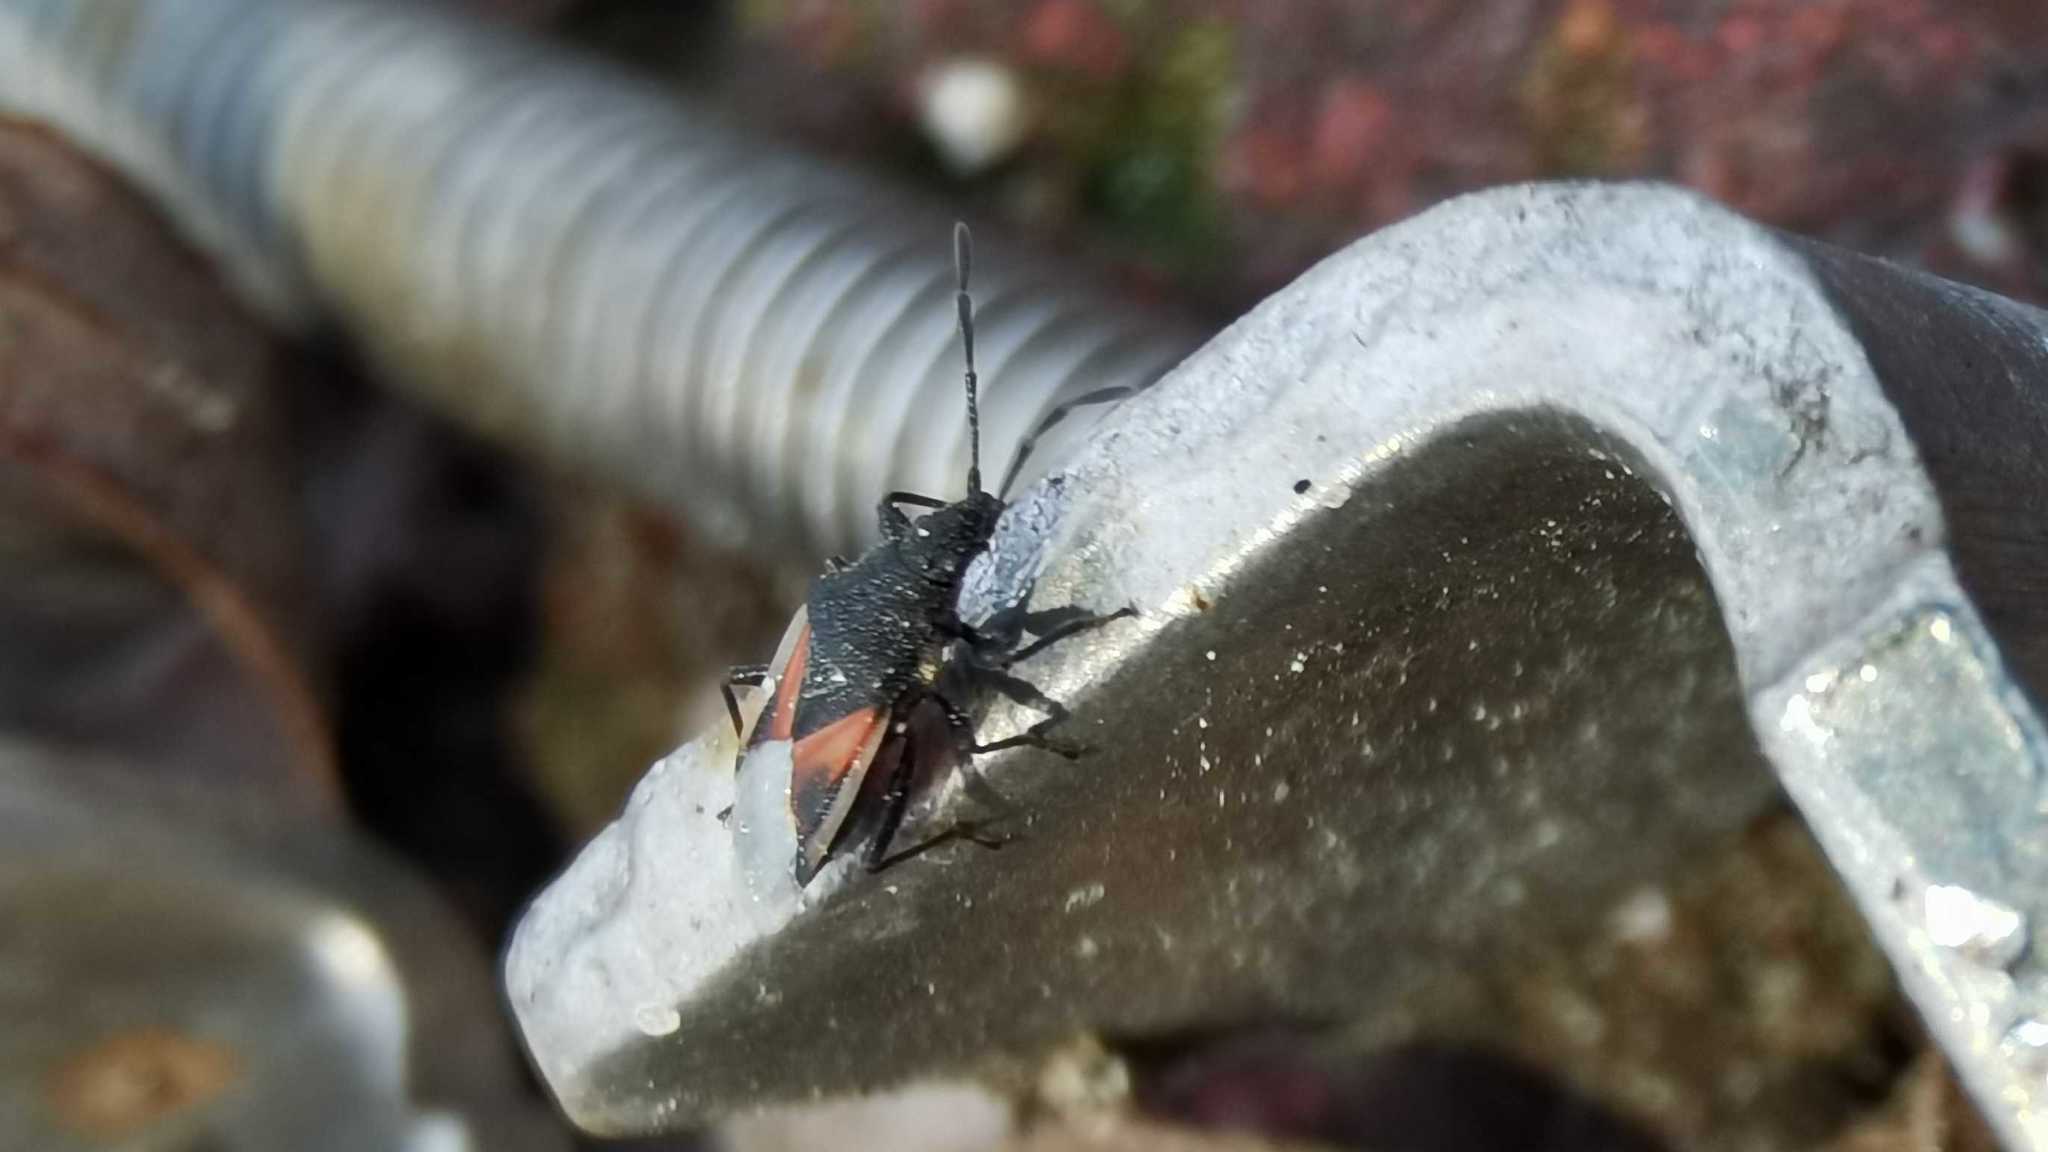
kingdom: Animalia
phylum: Arthropoda
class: Insecta
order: Hemiptera
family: Oxycarenidae
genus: Oxycarenus
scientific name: Oxycarenus lavaterae
